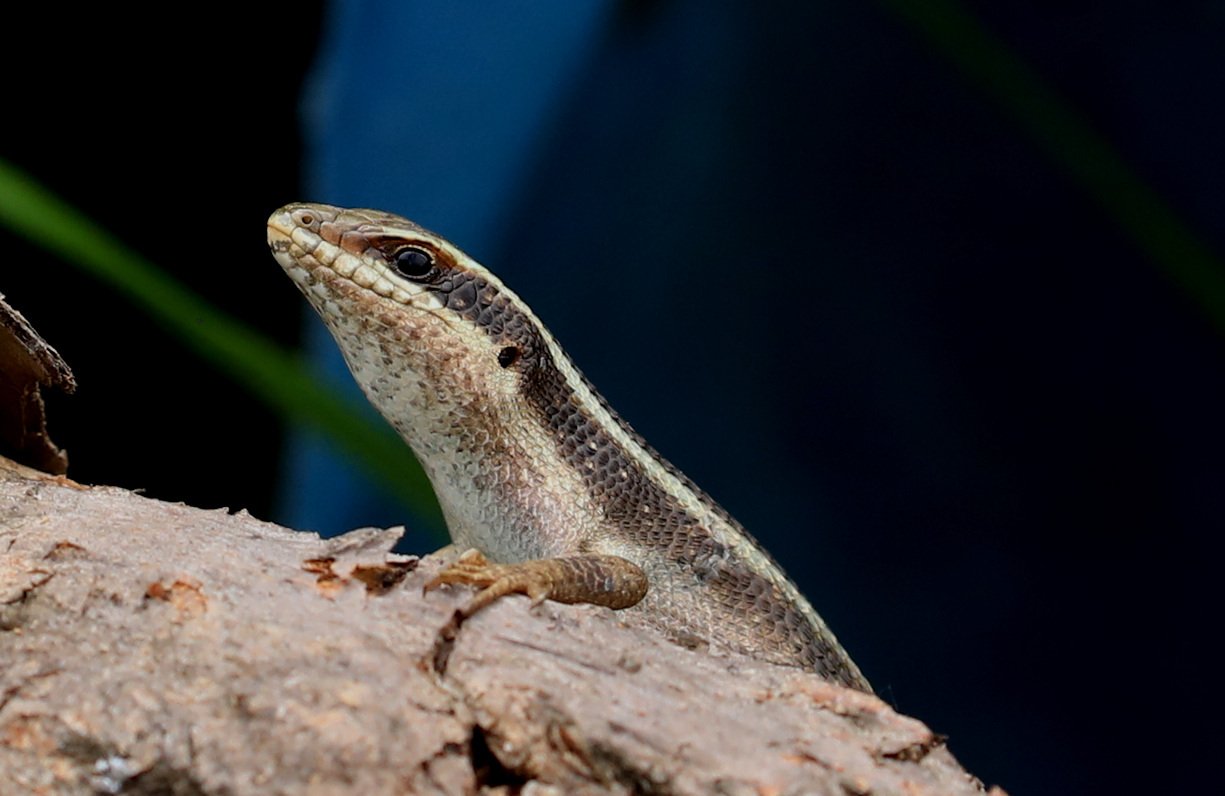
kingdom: Animalia
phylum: Chordata
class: Squamata
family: Scincidae
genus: Trachylepis
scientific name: Trachylepis striata
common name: African striped mabuya
